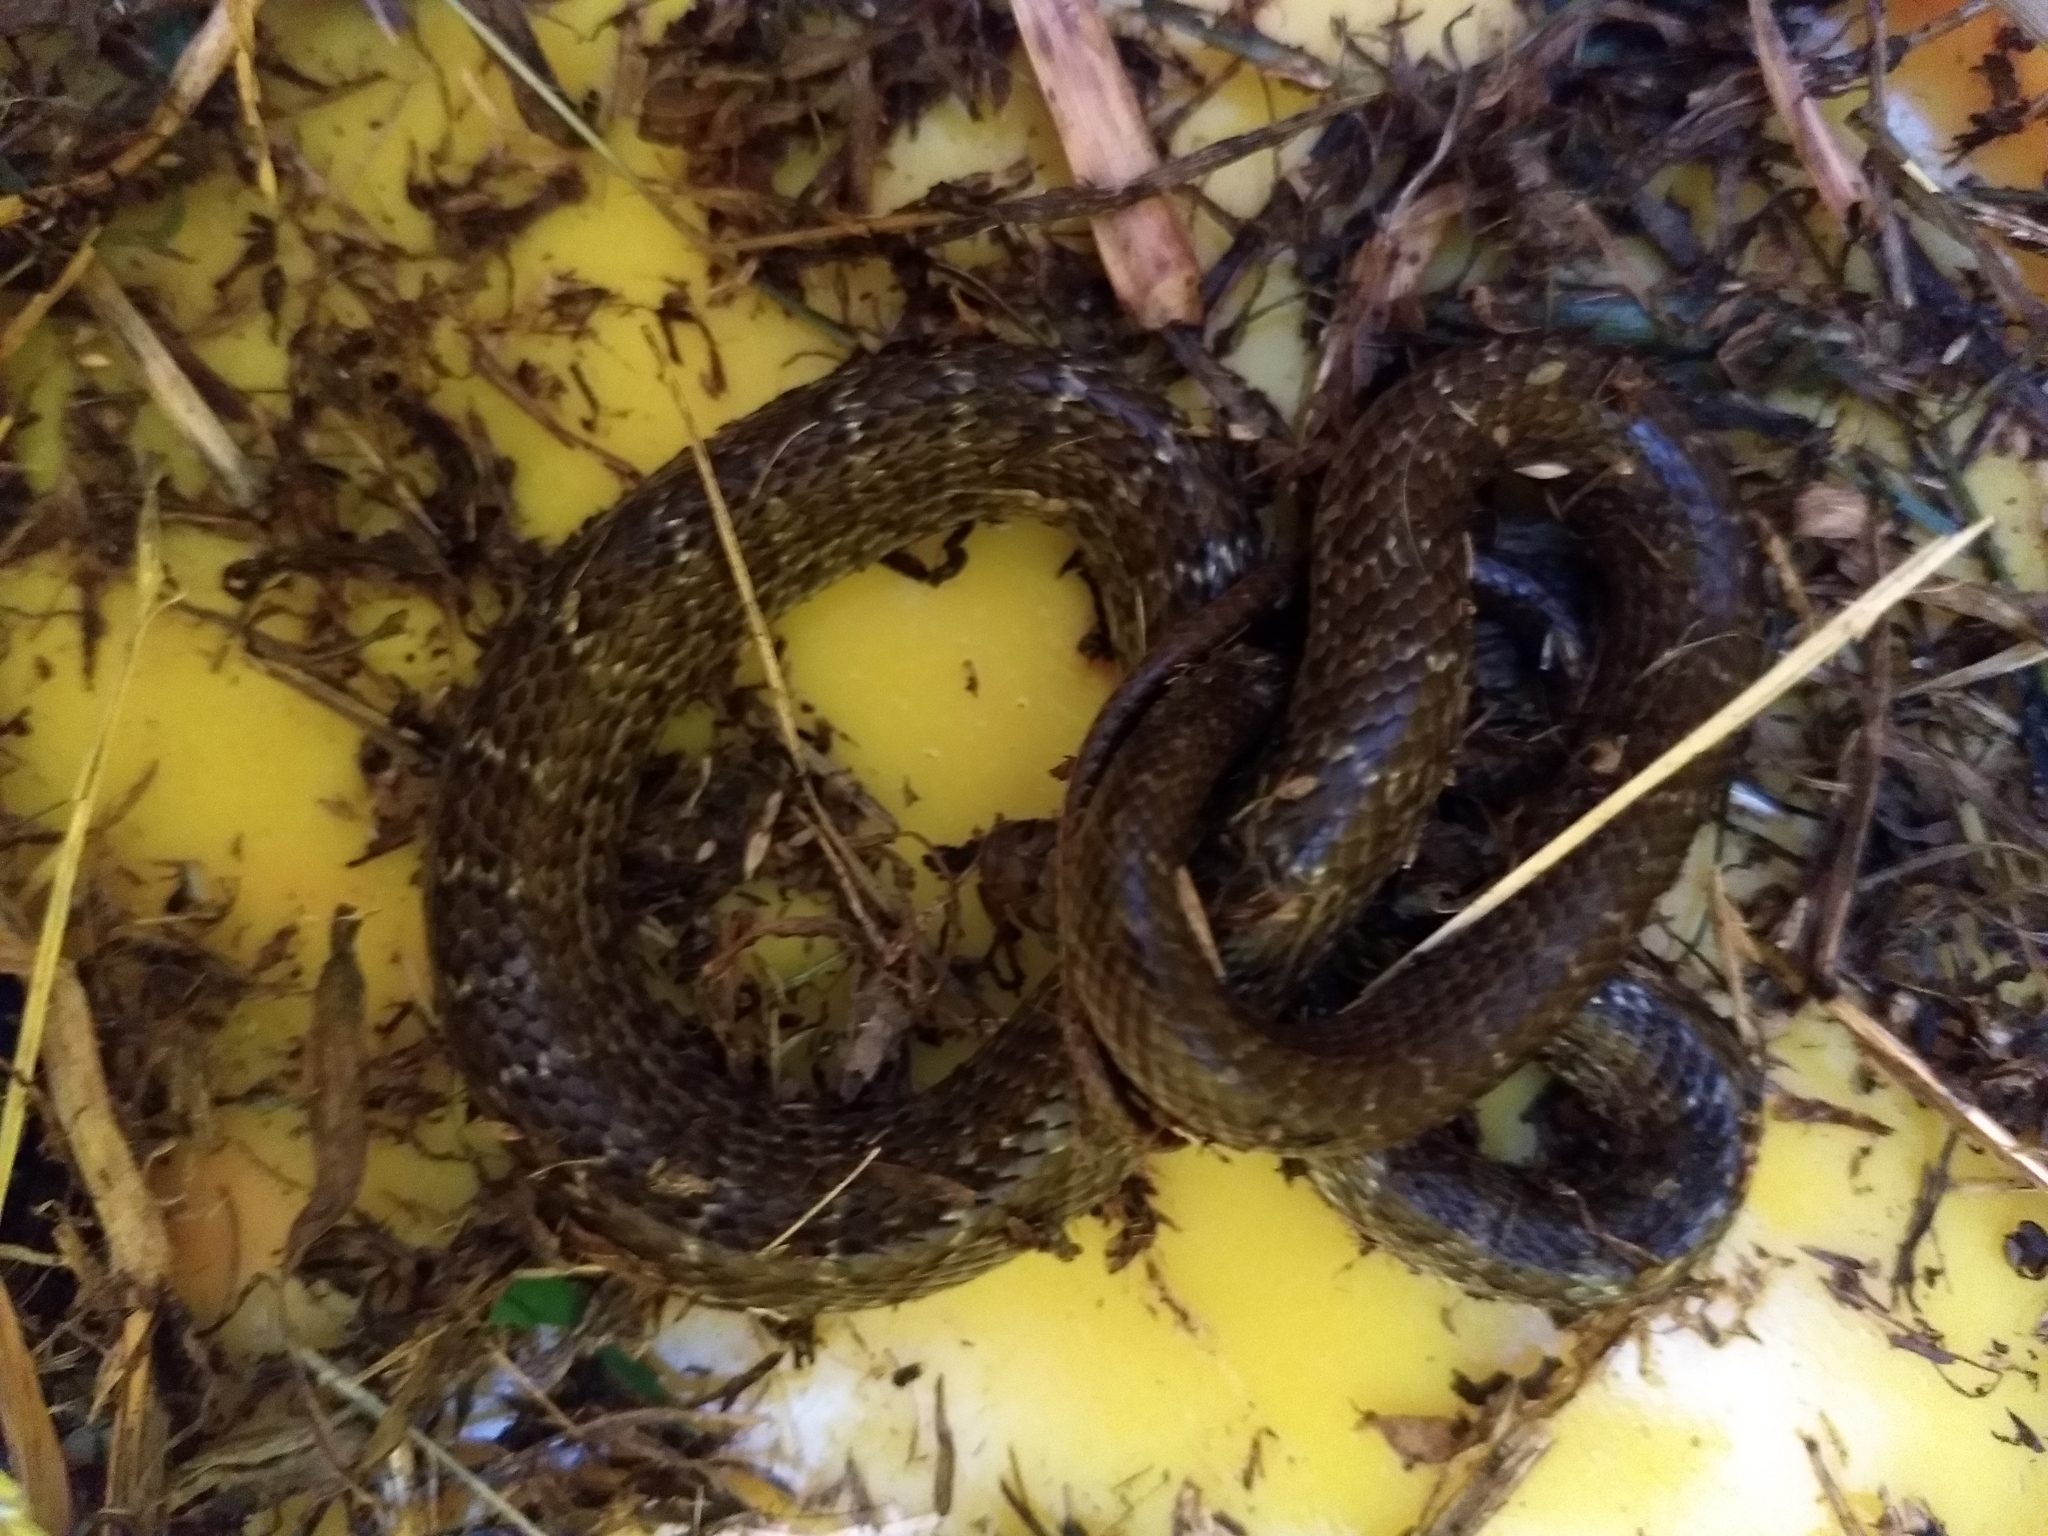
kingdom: Animalia
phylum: Chordata
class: Squamata
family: Colubridae
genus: Coluber
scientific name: Coluber constrictor
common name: Eastern racer
